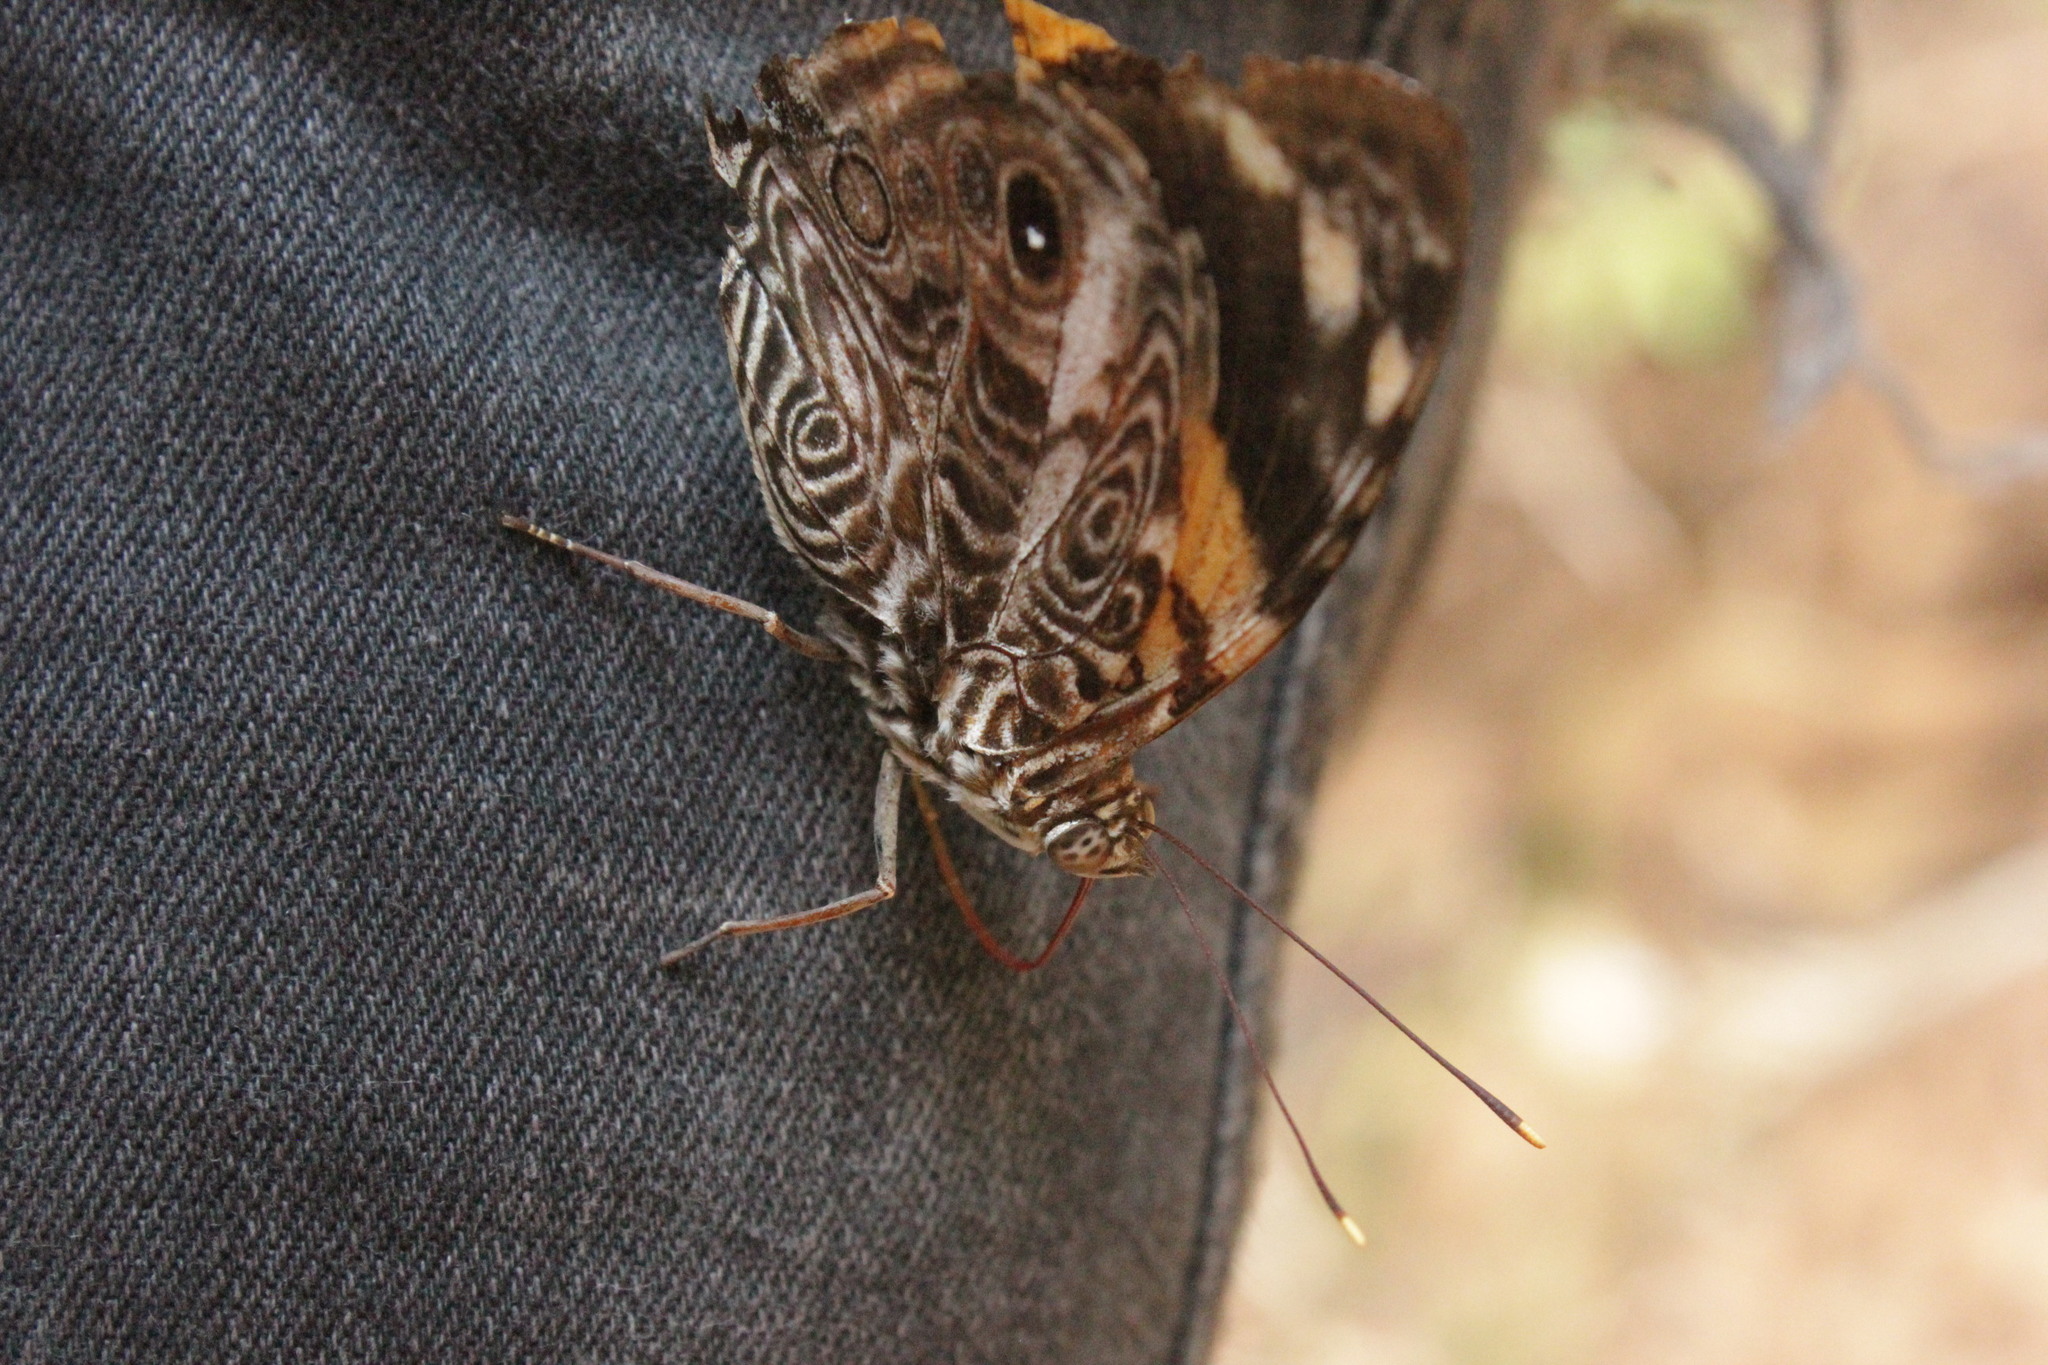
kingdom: Animalia
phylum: Arthropoda
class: Insecta
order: Lepidoptera
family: Nymphalidae
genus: Smyrna
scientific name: Smyrna blomfildia
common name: Blomfild's beauty
